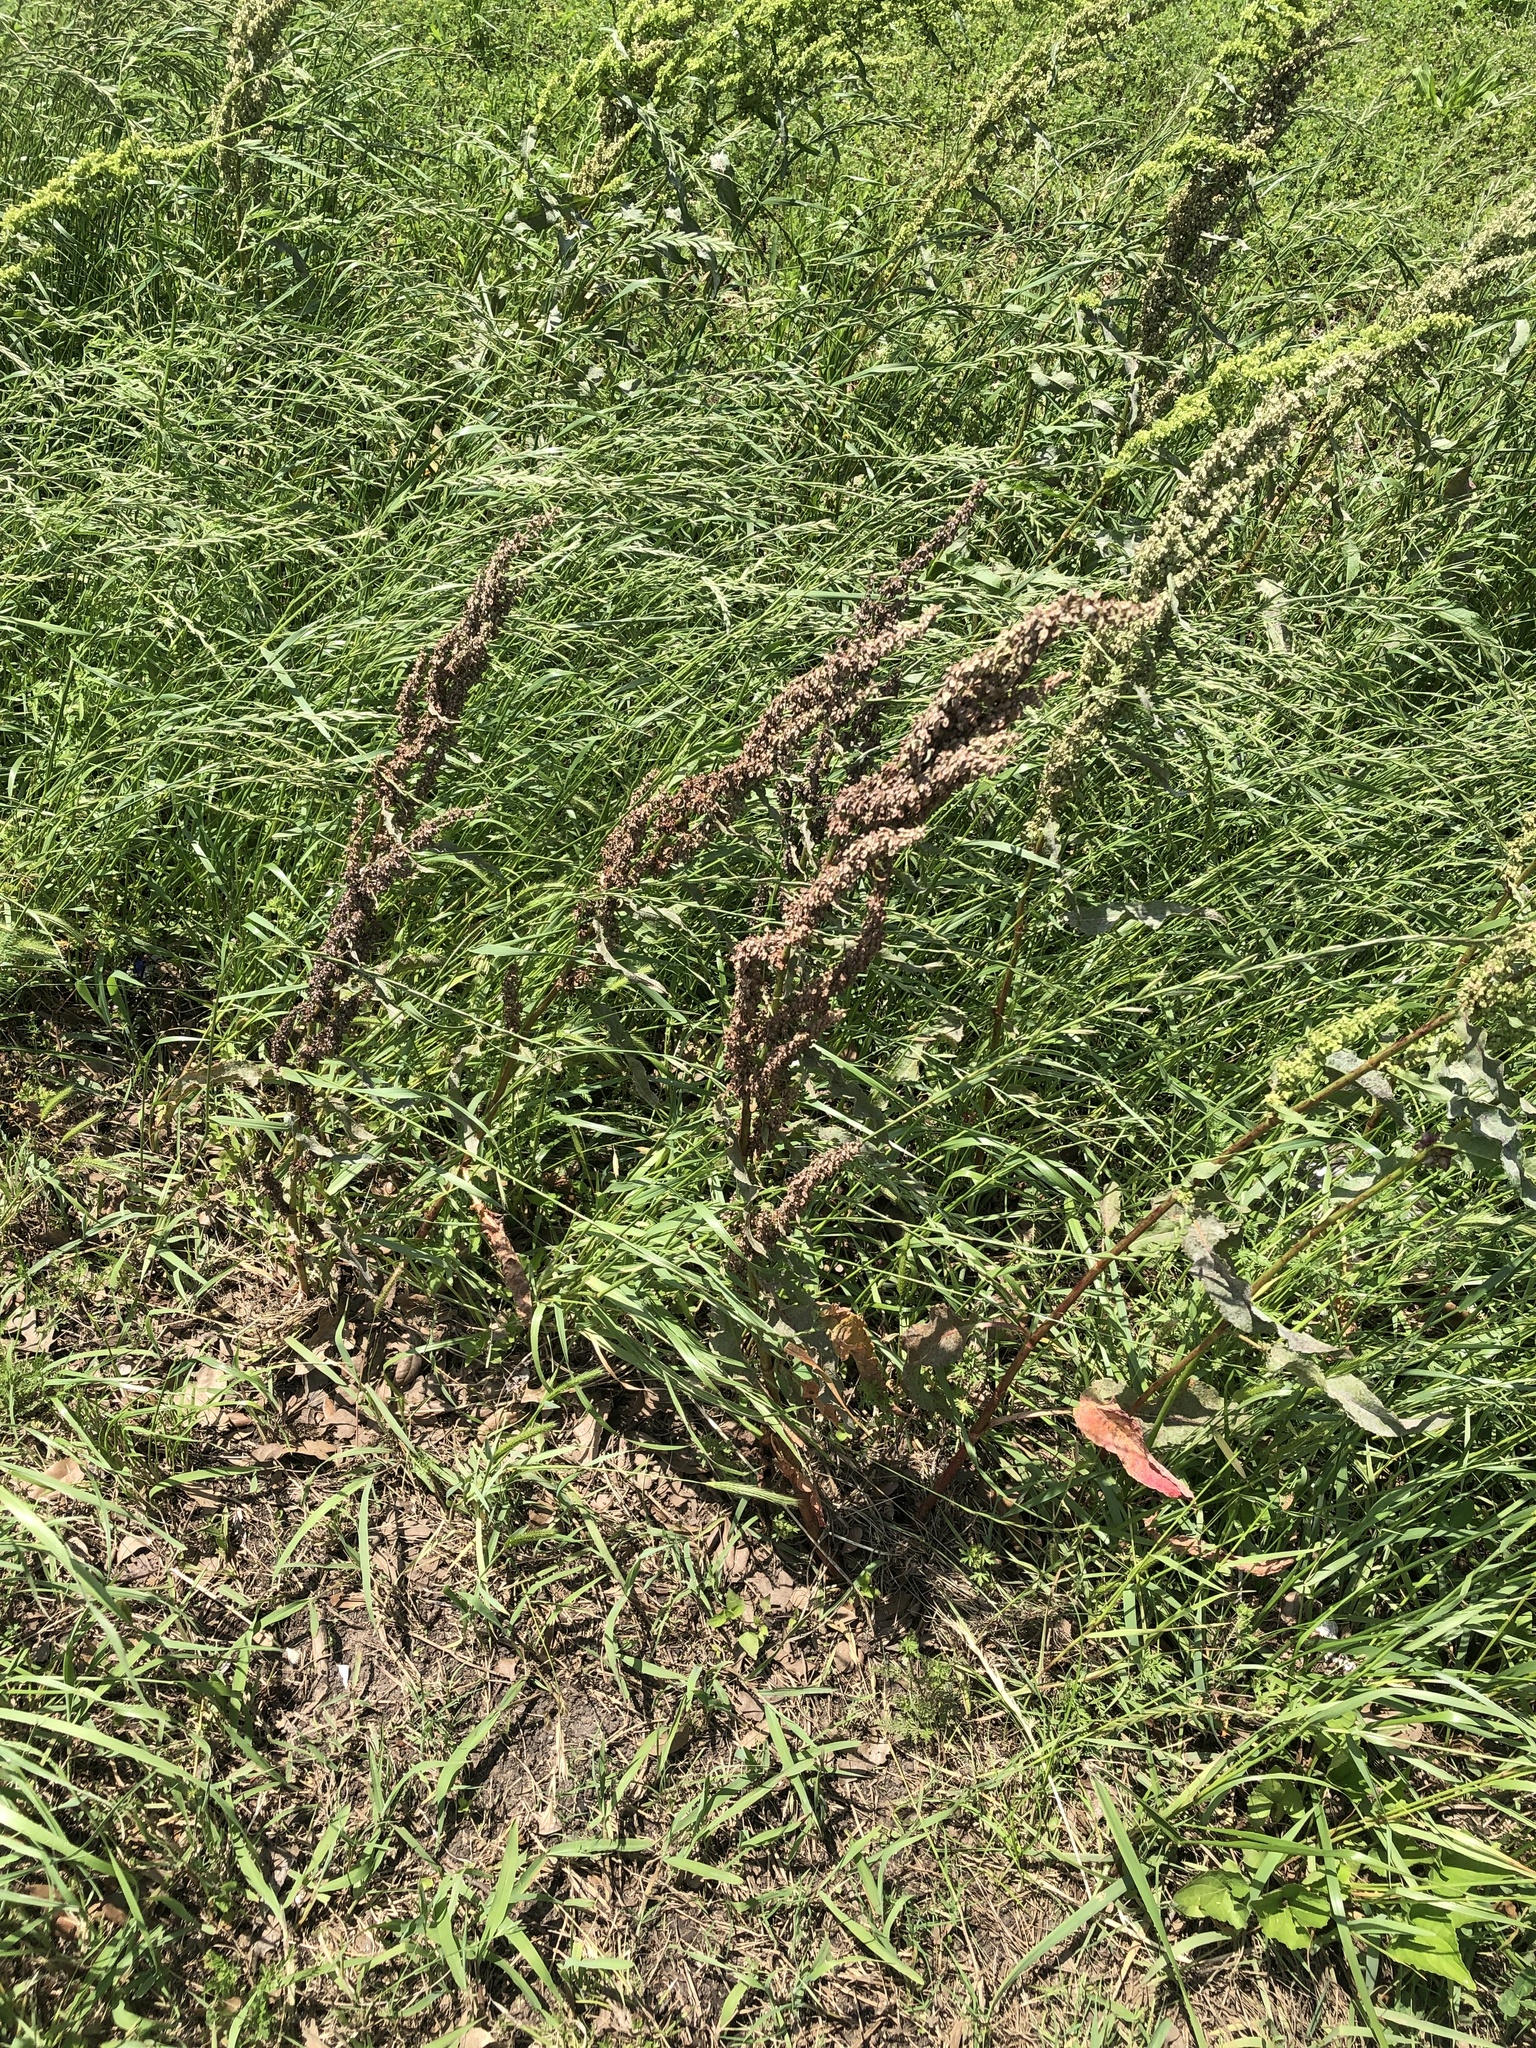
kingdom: Plantae
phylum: Tracheophyta
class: Magnoliopsida
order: Caryophyllales
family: Polygonaceae
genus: Rumex
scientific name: Rumex crispus
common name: Curled dock
